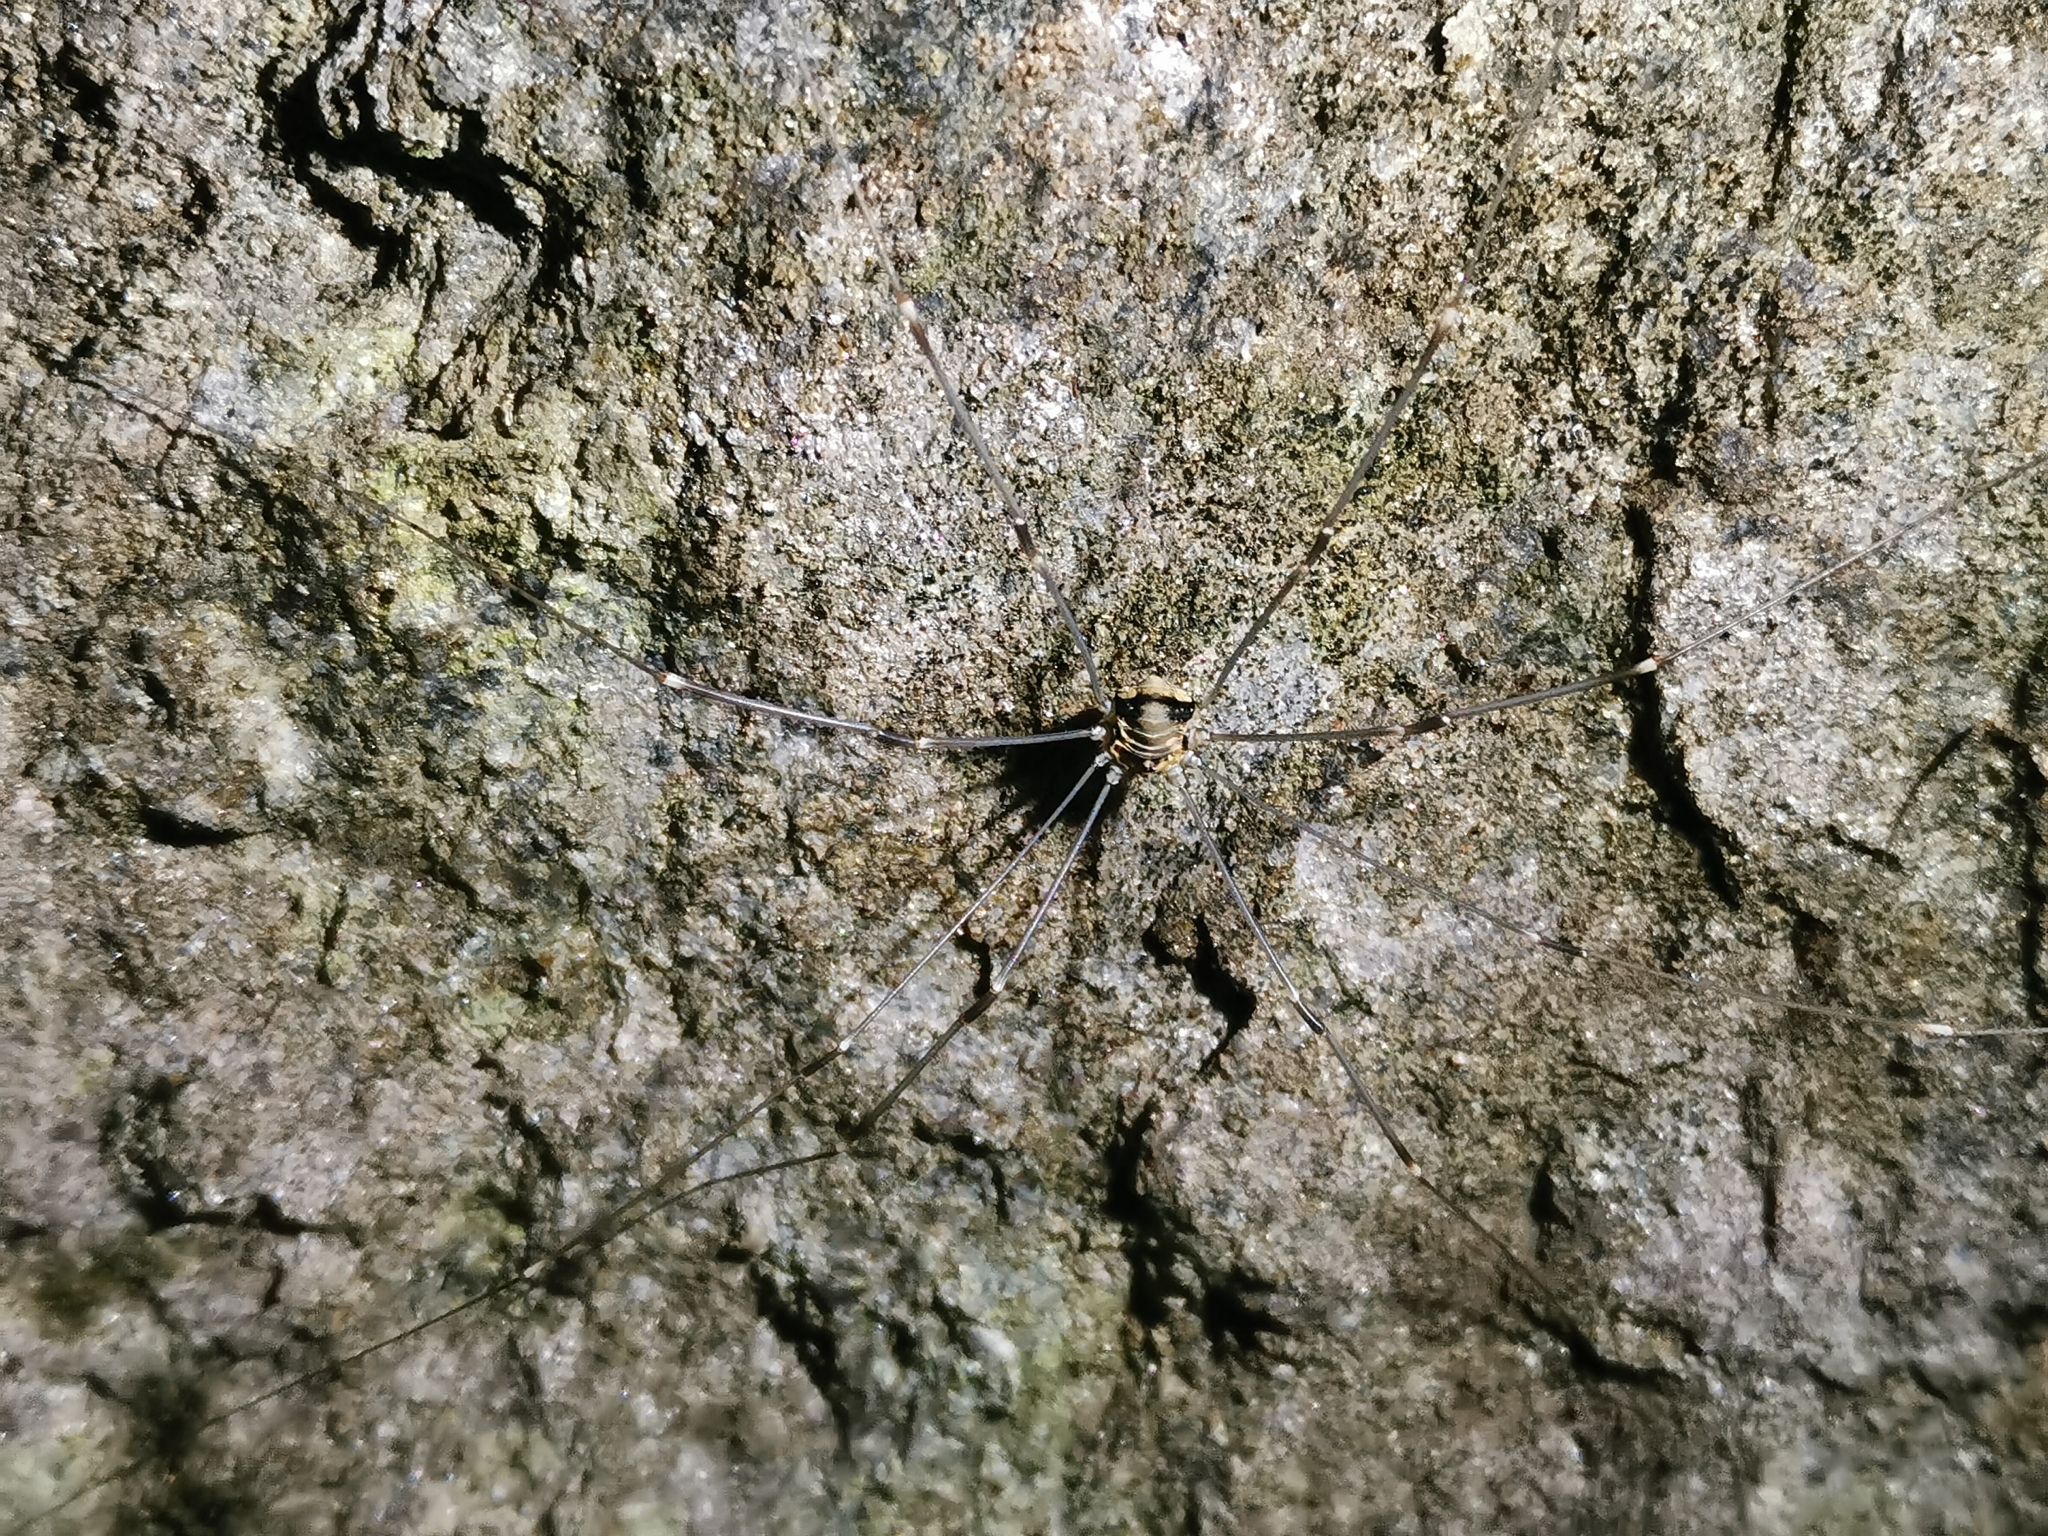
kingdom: Animalia
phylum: Arthropoda
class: Arachnida
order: Opiliones
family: Sclerosomatidae
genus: Leiobunum
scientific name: Leiobunum limbatum
